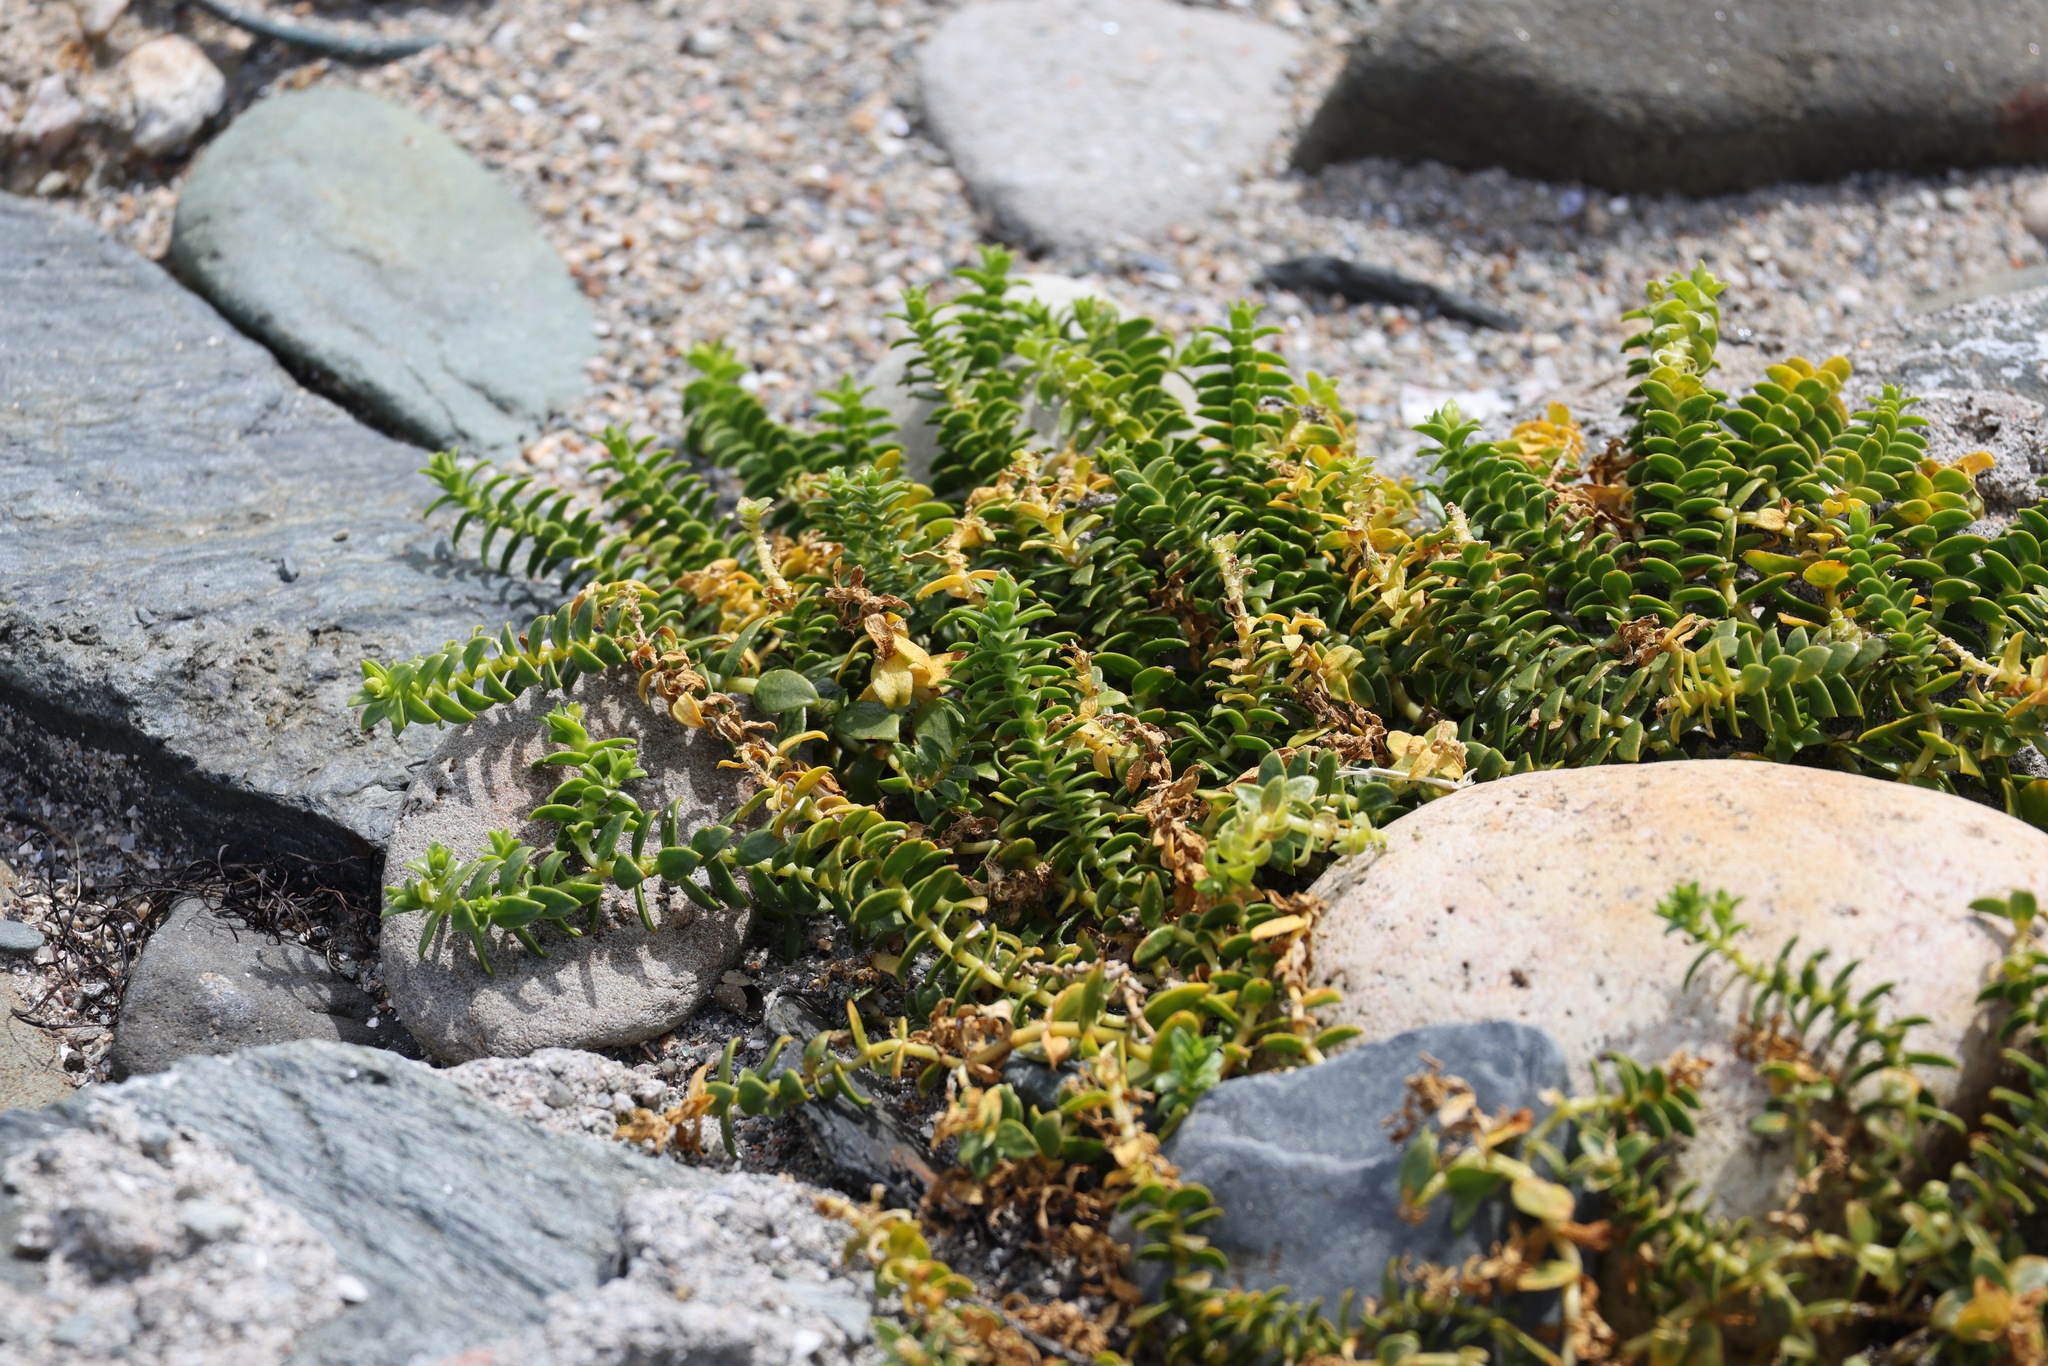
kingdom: Plantae
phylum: Tracheophyta
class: Magnoliopsida
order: Caryophyllales
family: Caryophyllaceae
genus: Honckenya
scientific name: Honckenya peploides
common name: Sea sandwort
